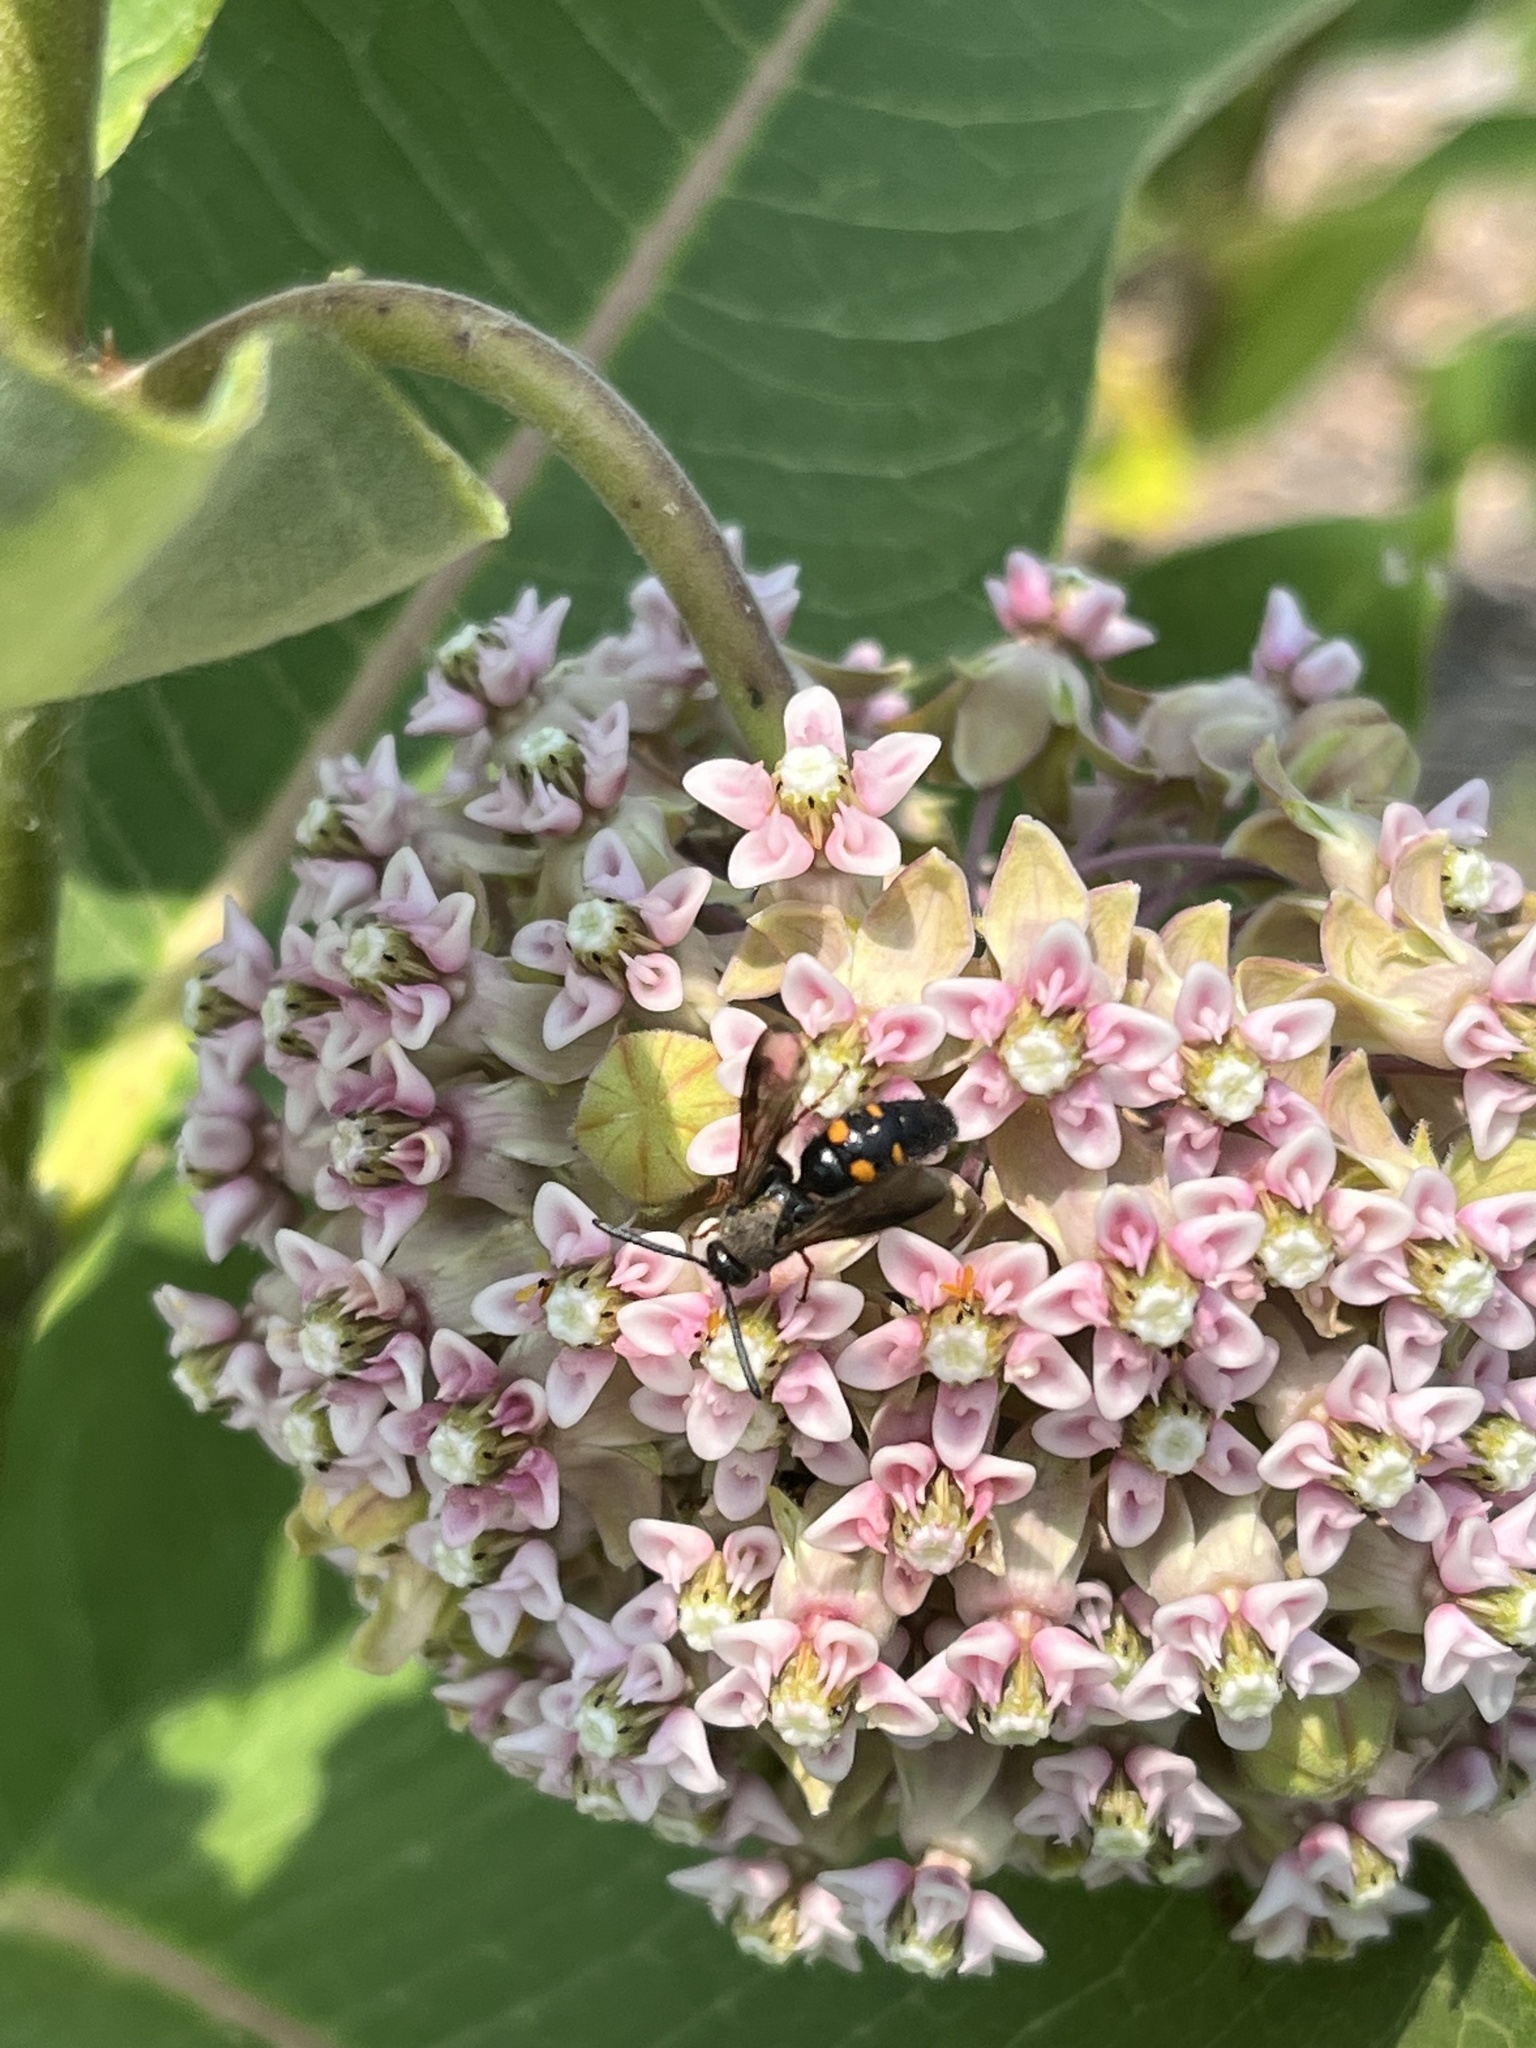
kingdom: Animalia
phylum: Arthropoda
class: Insecta
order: Hymenoptera
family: Scoliidae
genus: Scolia
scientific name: Scolia nobilitata
